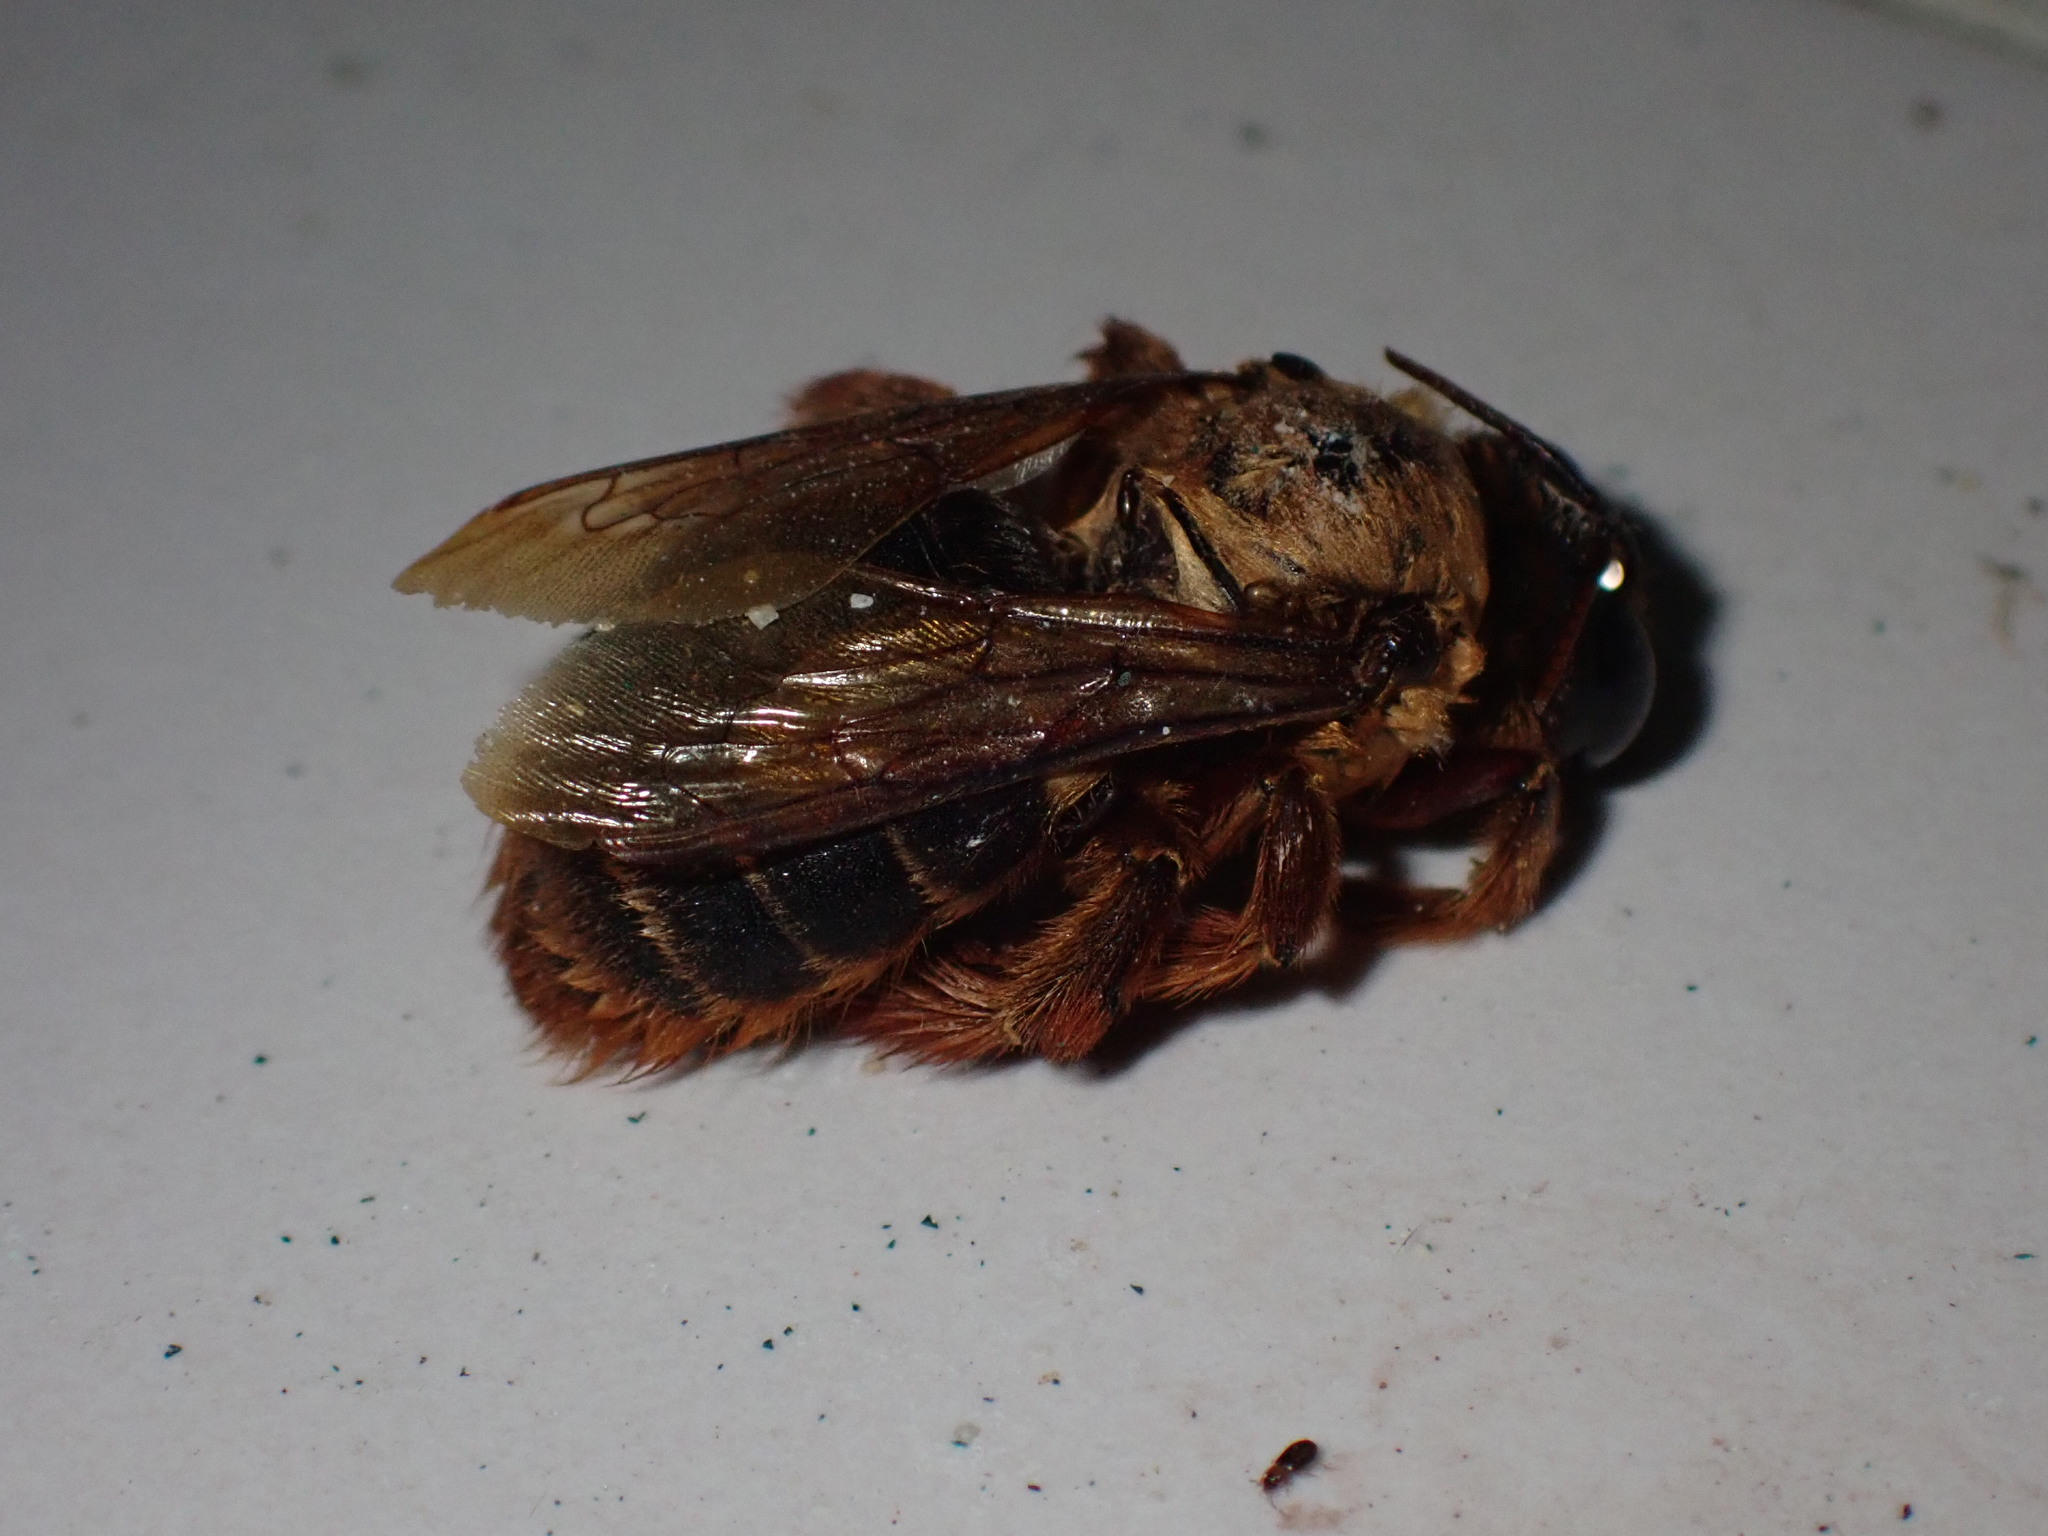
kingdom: Animalia
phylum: Arthropoda
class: Insecta
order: Hymenoptera
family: Apidae
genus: Xylocopa
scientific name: Xylocopa tranquebarica
